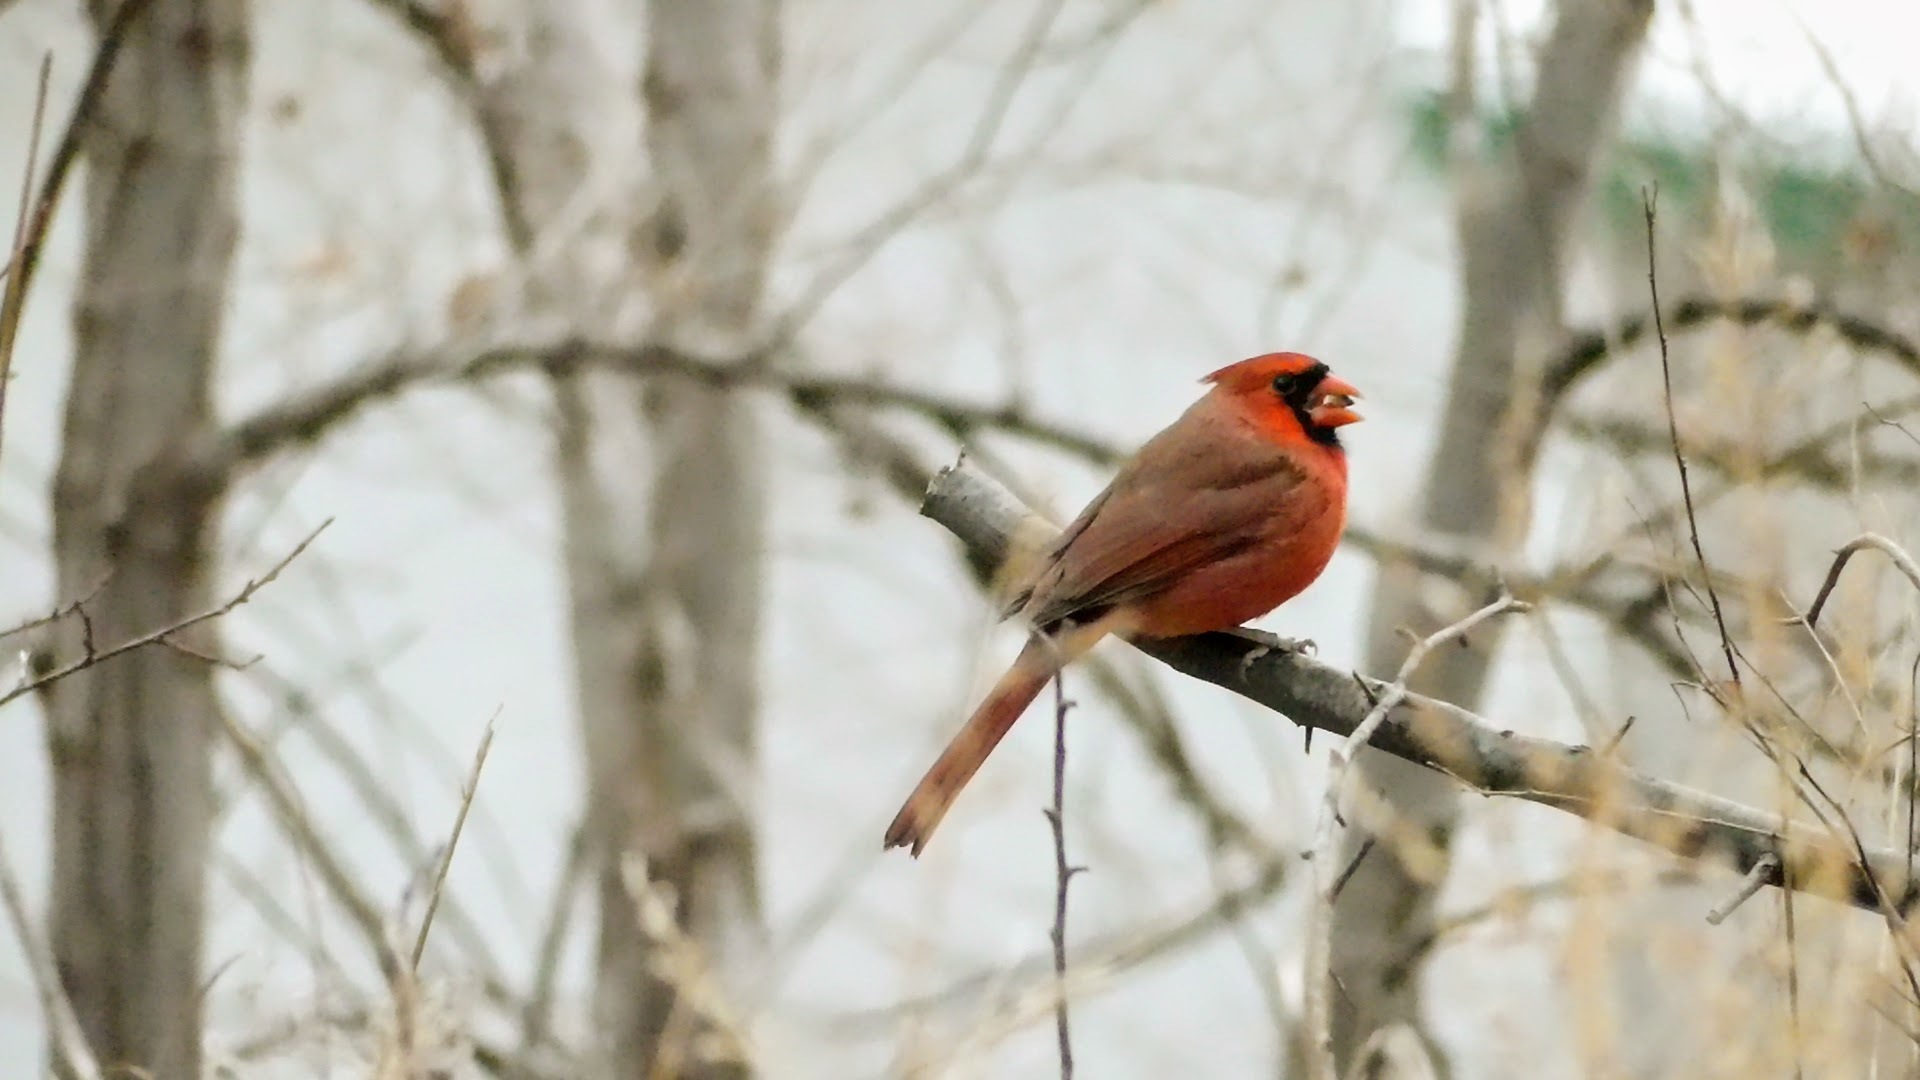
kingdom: Animalia
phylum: Chordata
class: Aves
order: Passeriformes
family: Cardinalidae
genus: Cardinalis
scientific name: Cardinalis cardinalis
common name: Northern cardinal
